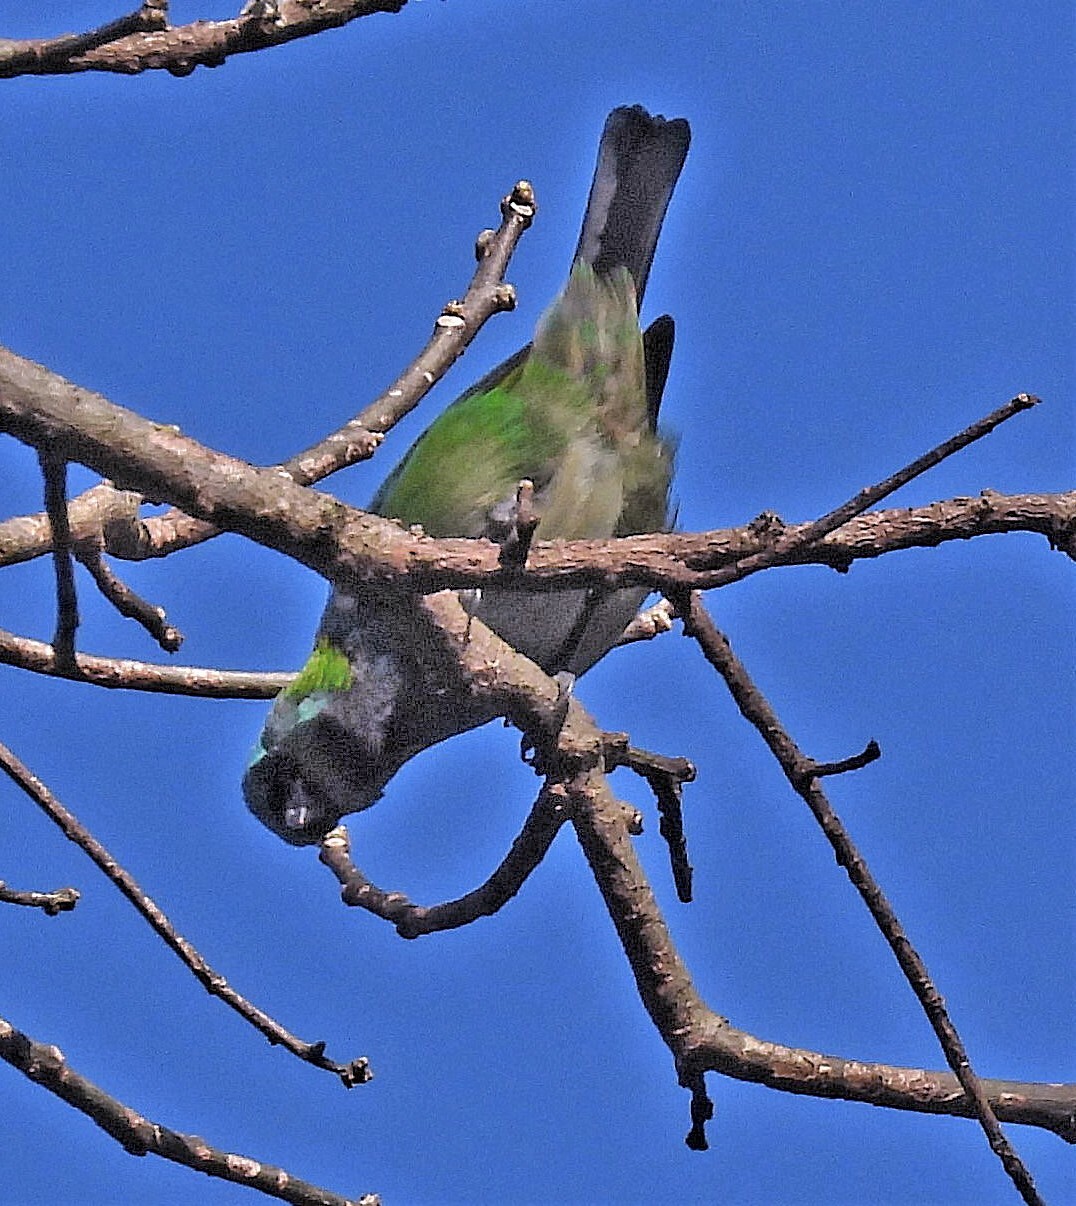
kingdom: Animalia
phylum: Chordata
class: Aves
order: Passeriformes
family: Thraupidae
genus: Tangara
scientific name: Tangara seledon
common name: Green-headed tanager
